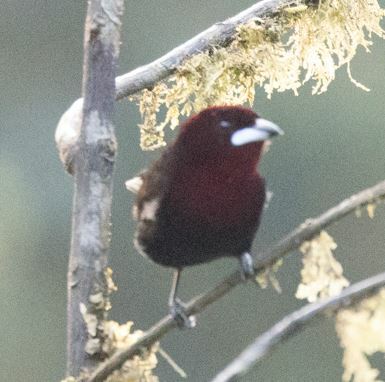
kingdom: Animalia
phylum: Chordata
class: Aves
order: Passeriformes
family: Thraupidae
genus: Ramphocelus
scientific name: Ramphocelus carbo
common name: Silver-beaked tanager
